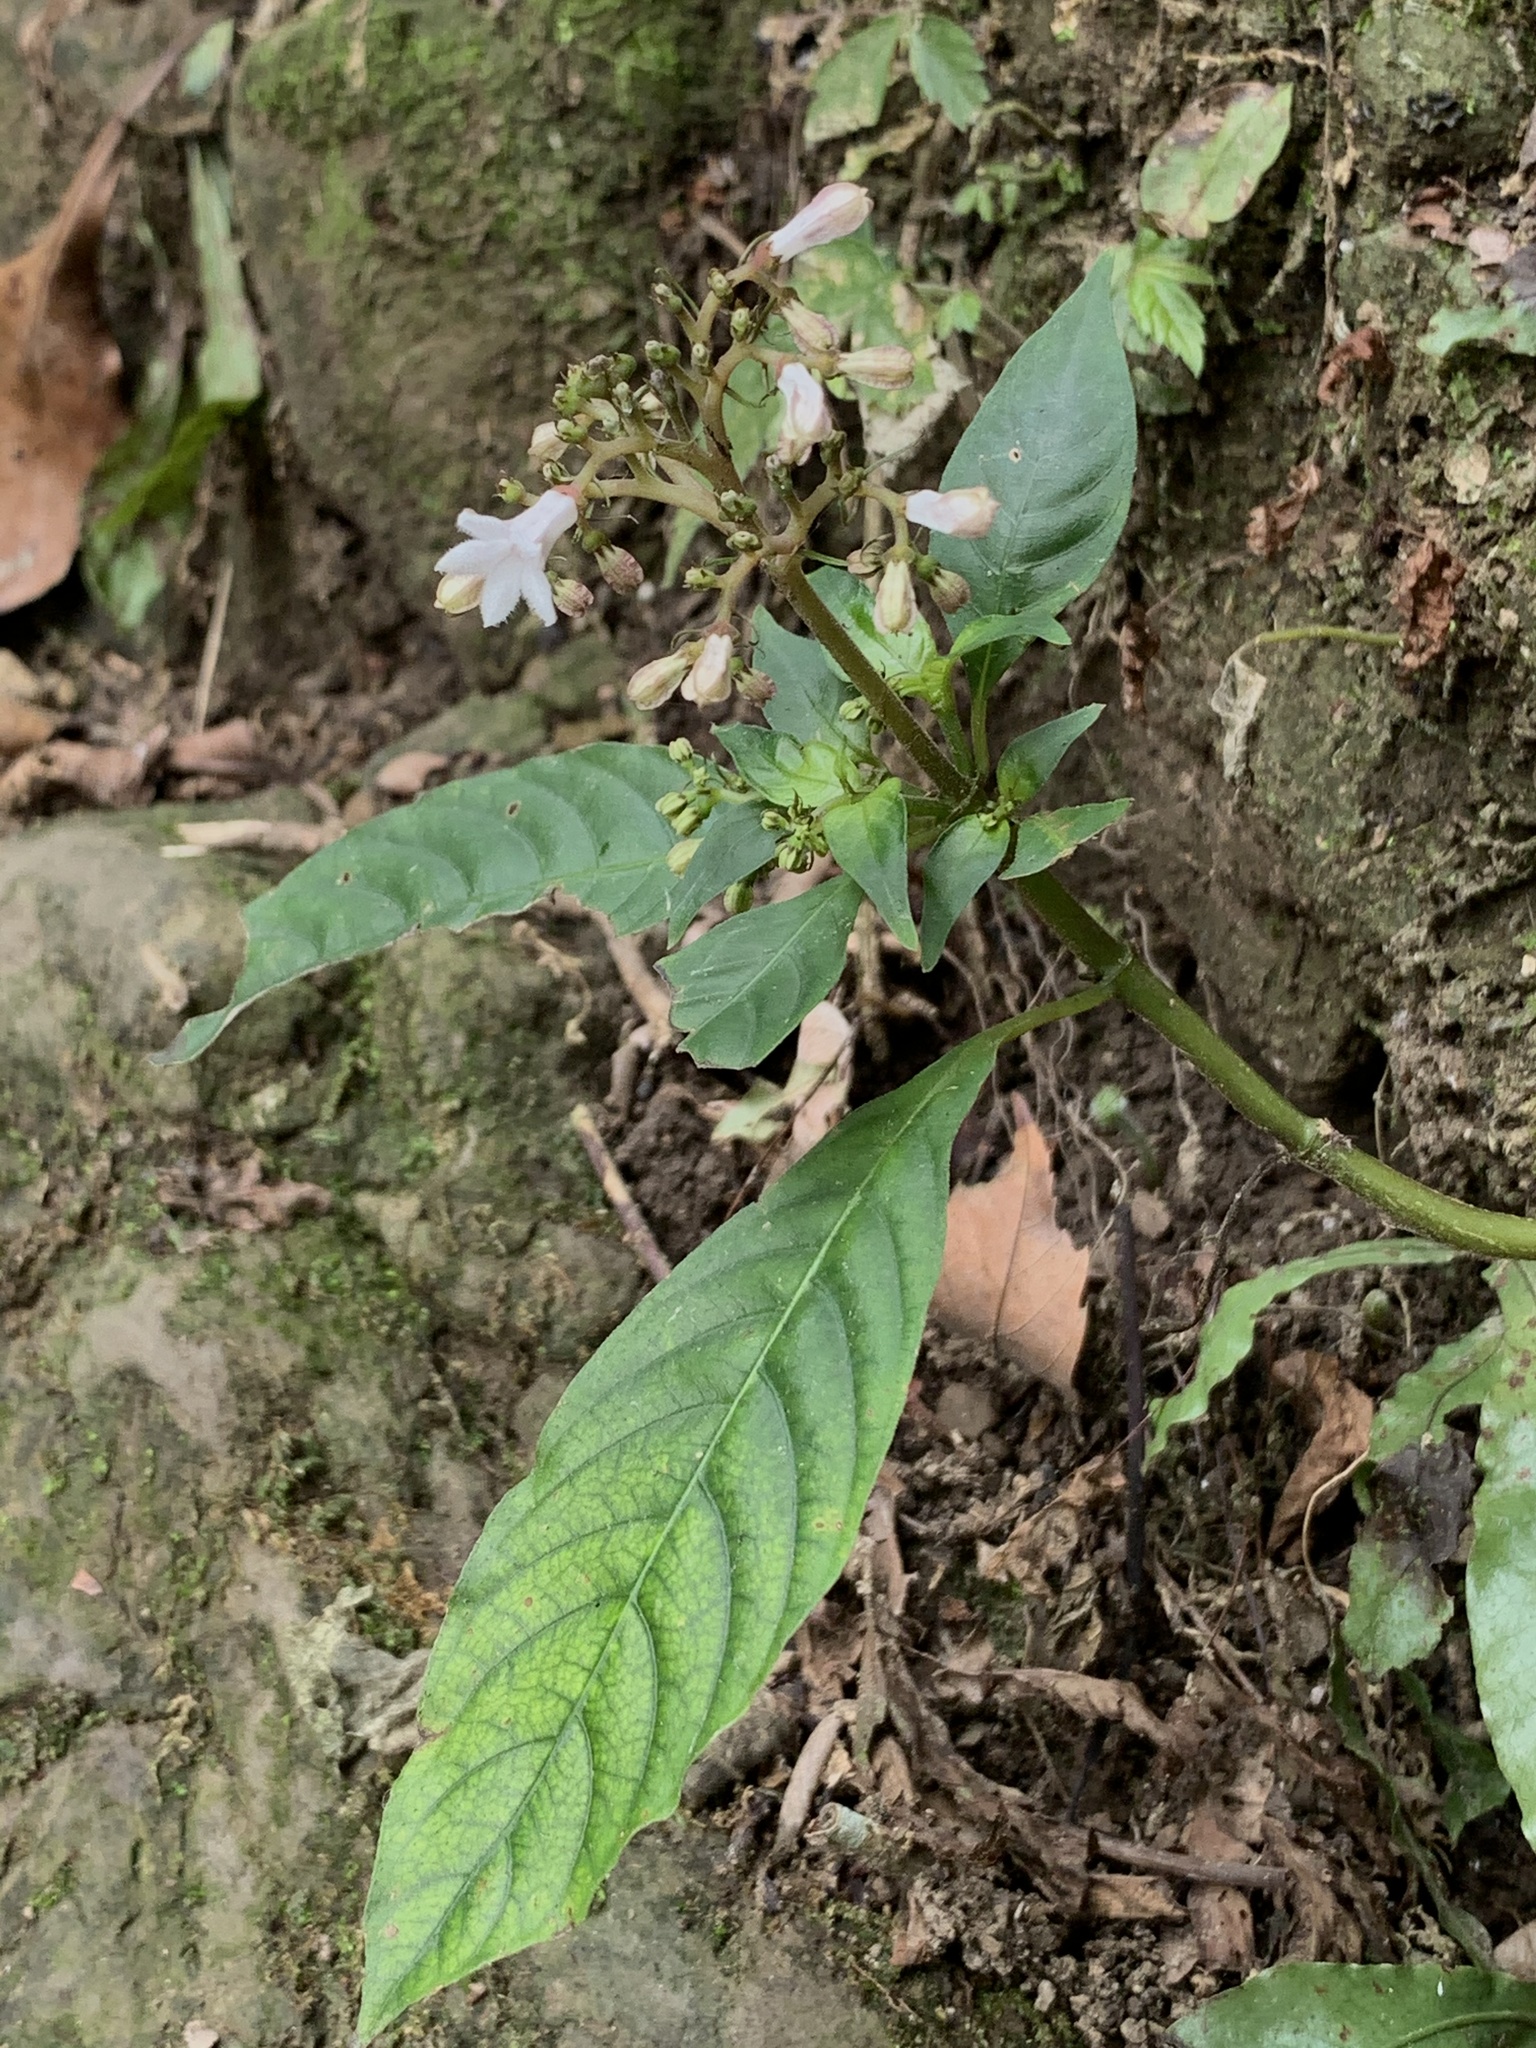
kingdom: Plantae
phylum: Tracheophyta
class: Magnoliopsida
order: Gentianales
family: Rubiaceae
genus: Ophiorrhiza
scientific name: Ophiorrhiza japonica
